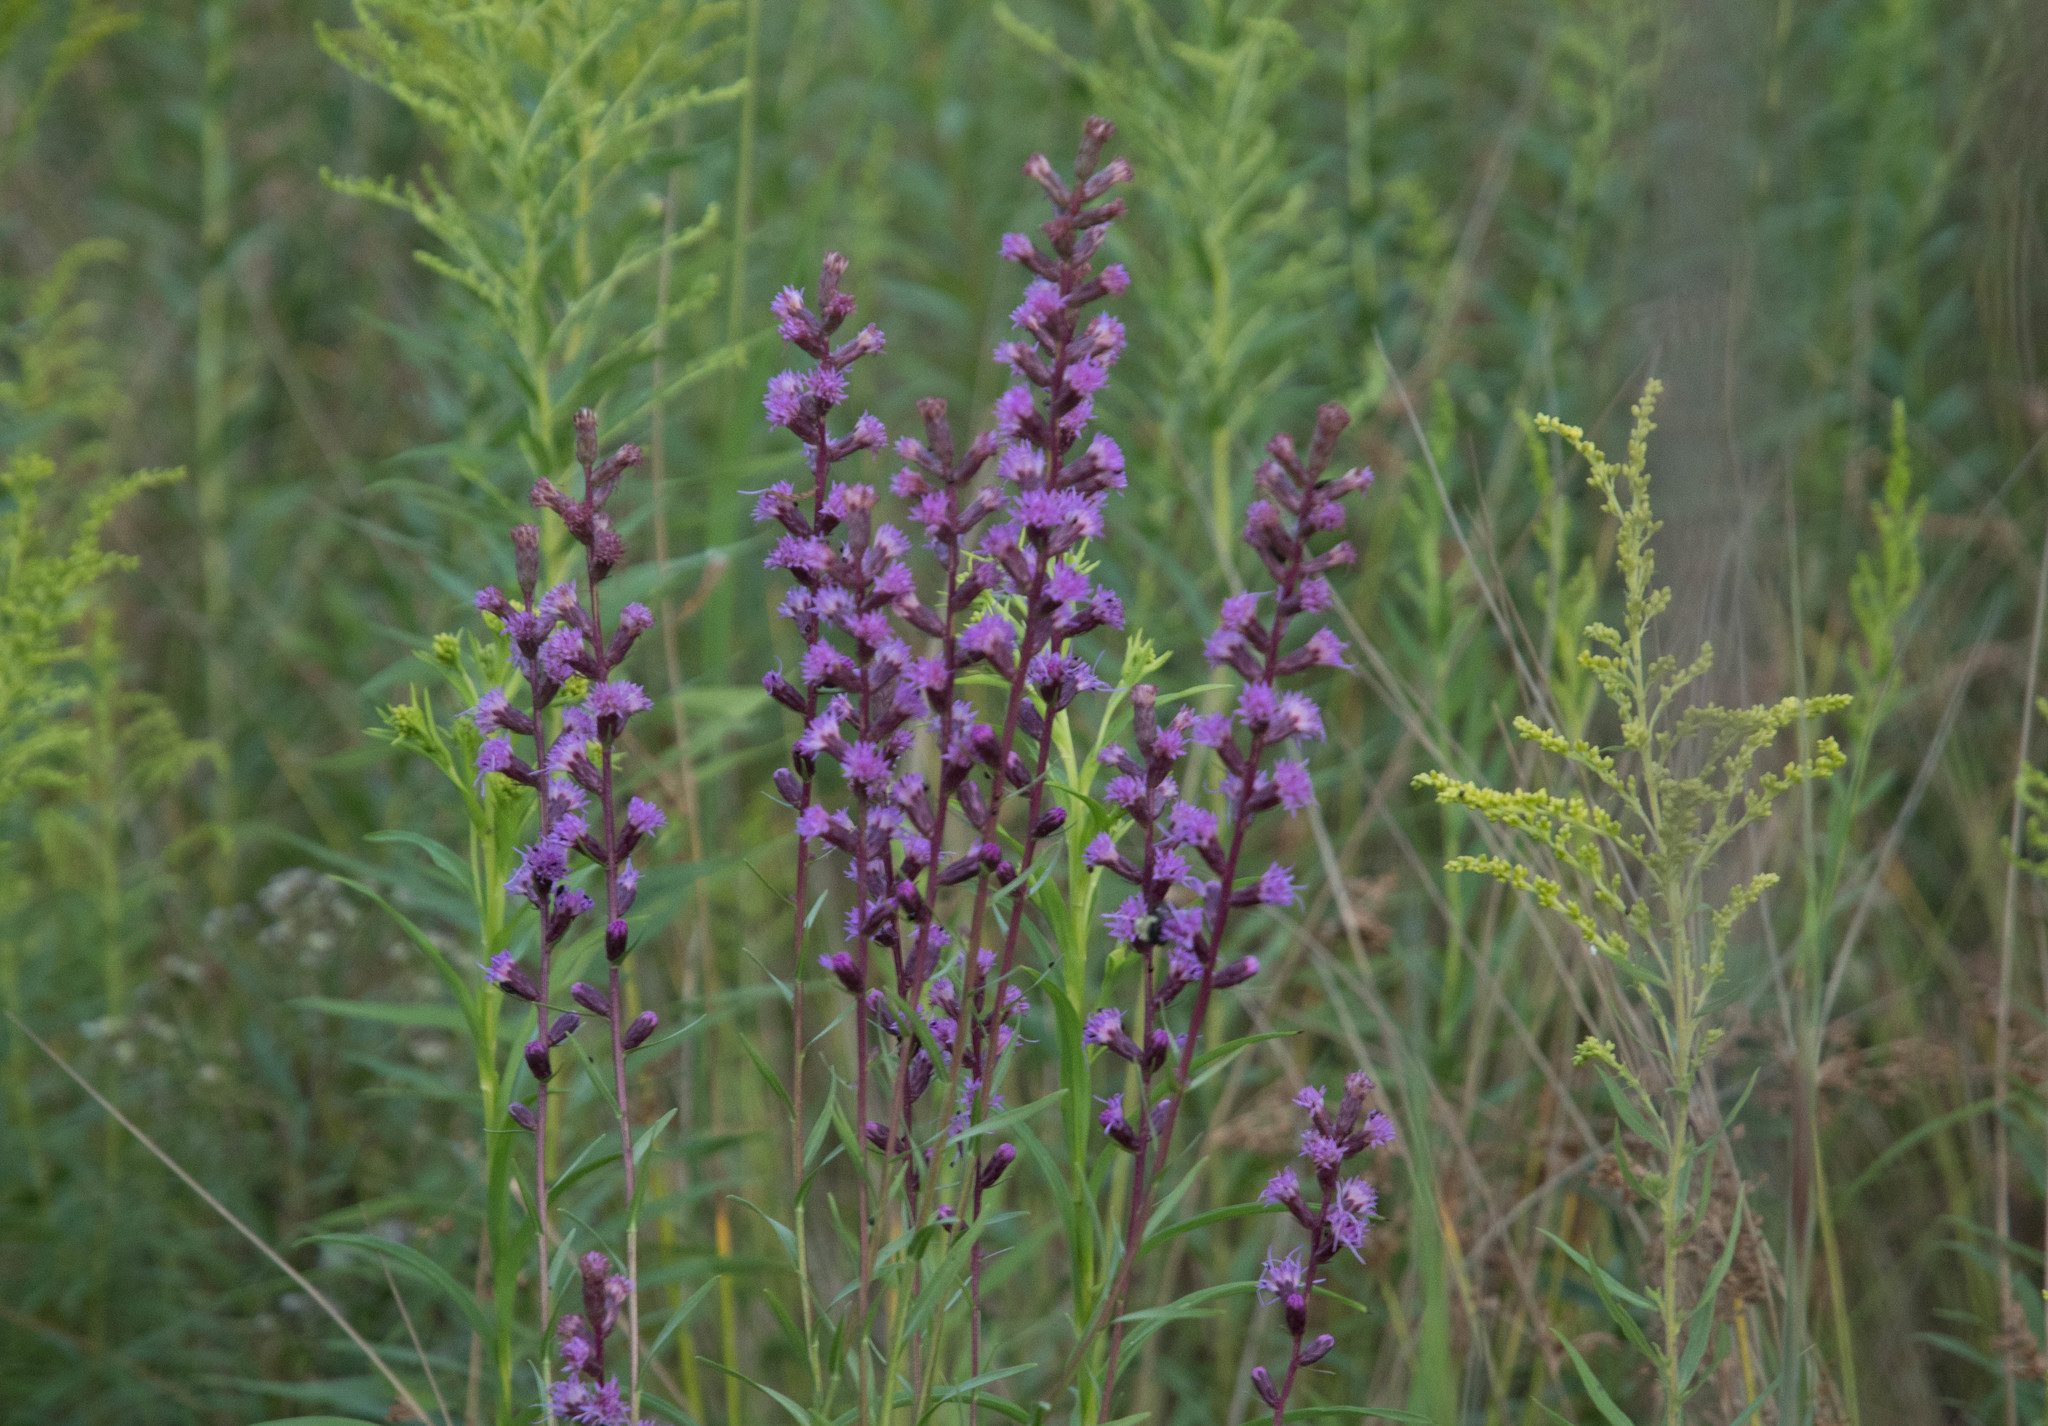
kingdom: Plantae
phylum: Tracheophyta
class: Magnoliopsida
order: Asterales
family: Asteraceae
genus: Liatris
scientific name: Liatris spicata
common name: Florist gayfeather
